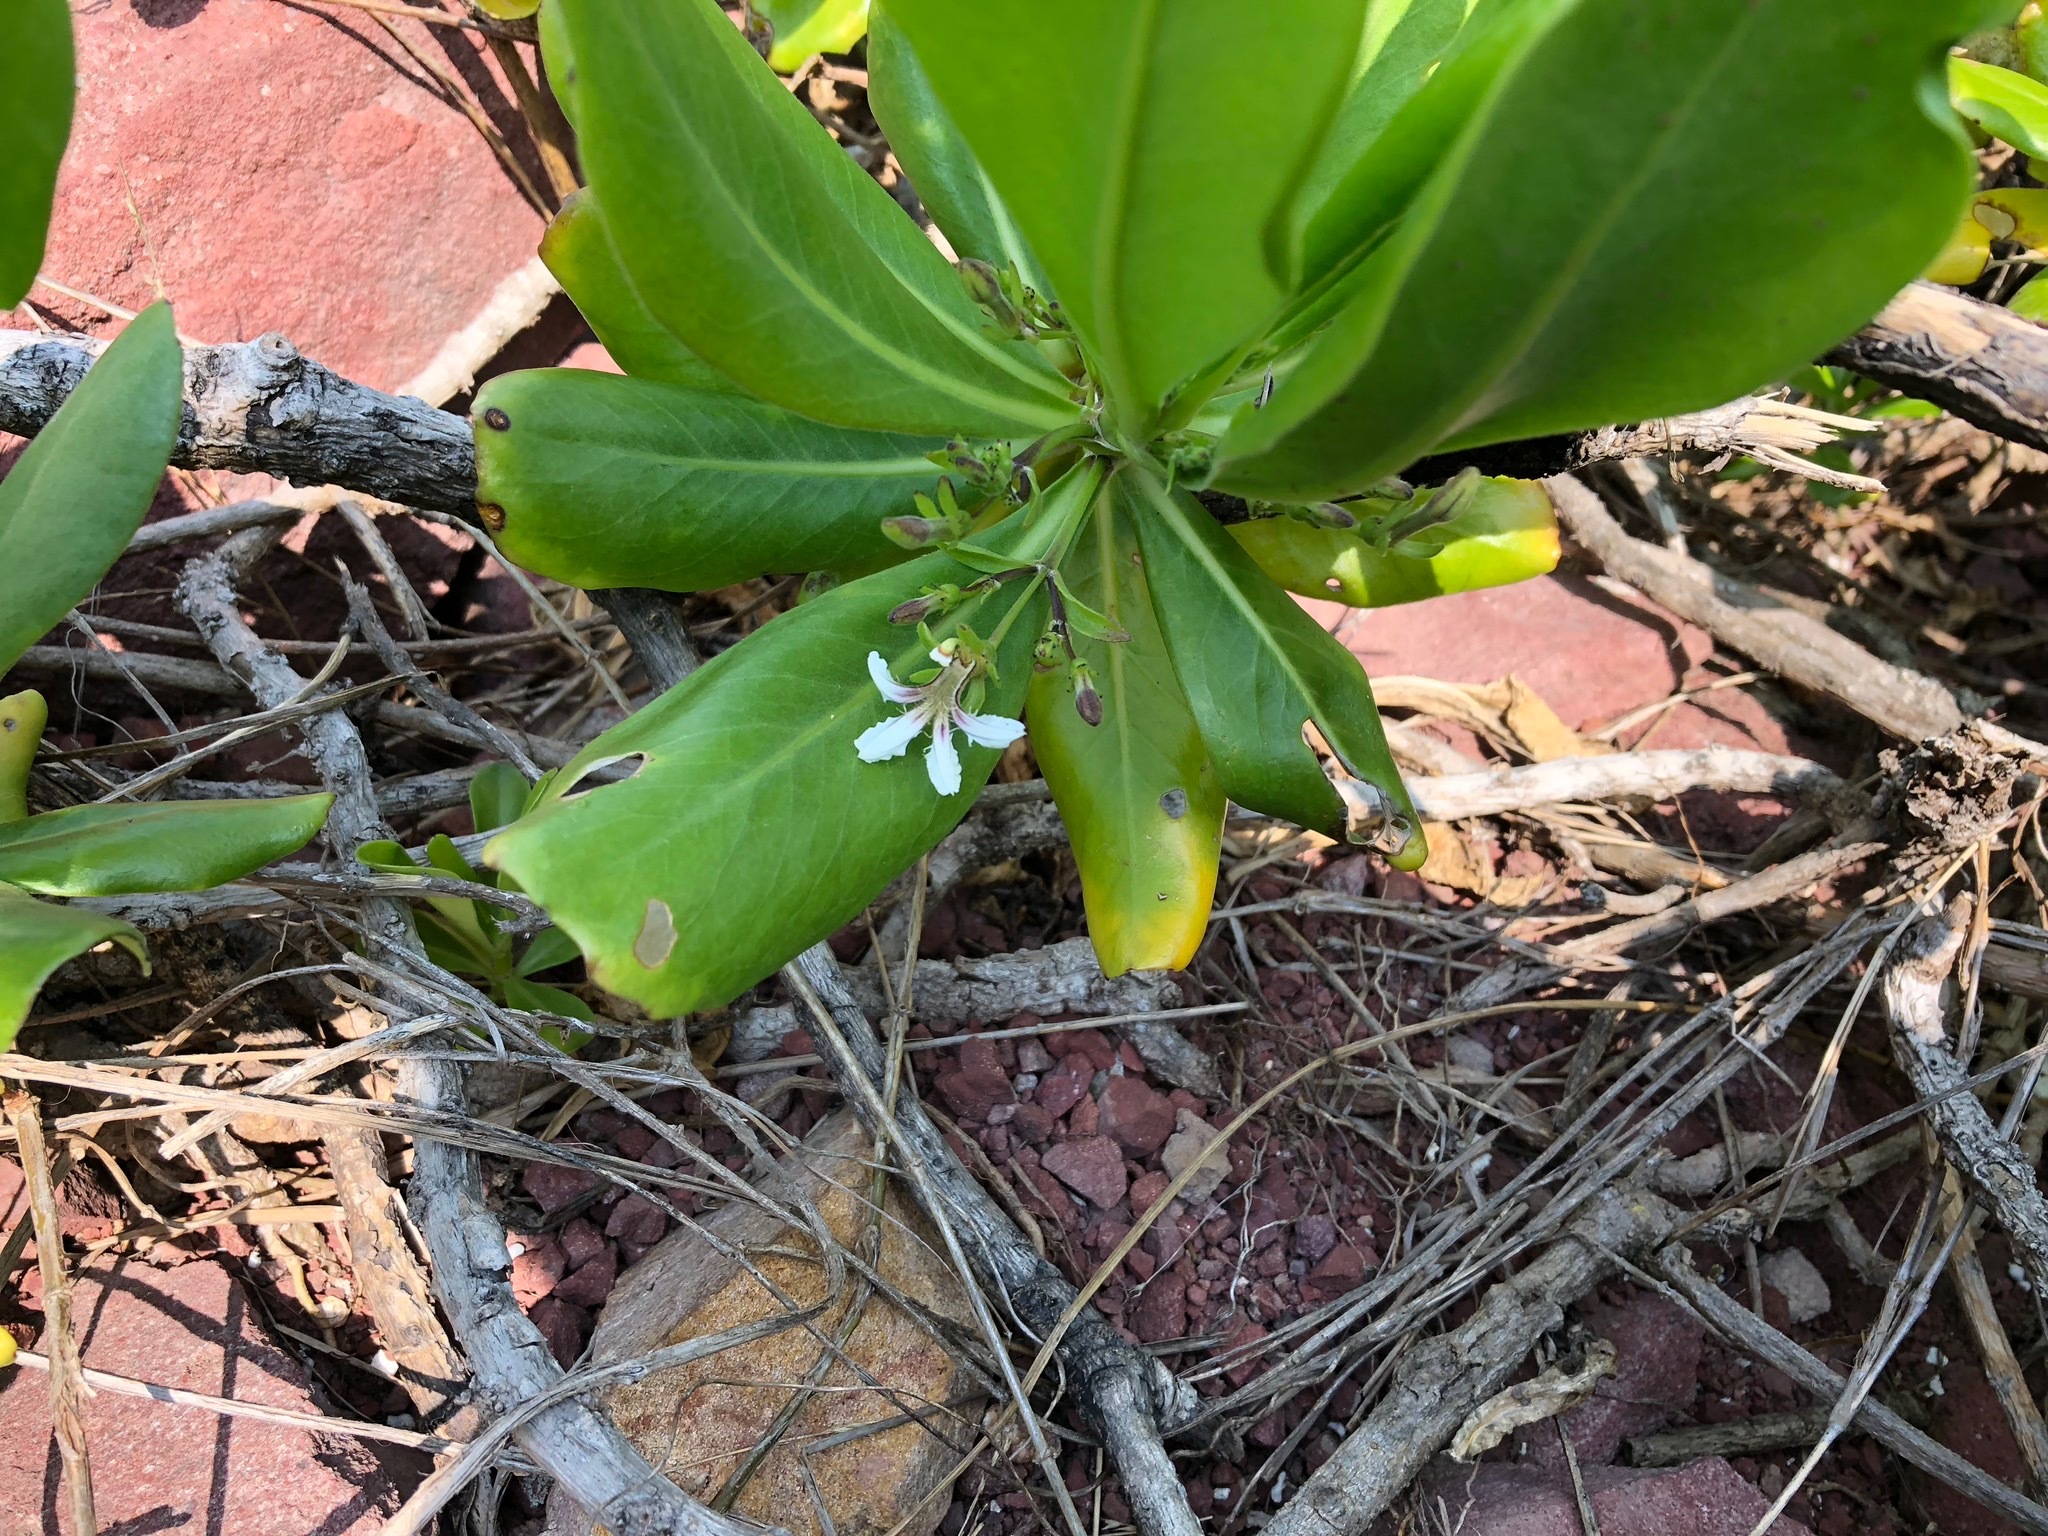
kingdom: Plantae
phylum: Tracheophyta
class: Magnoliopsida
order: Asterales
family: Goodeniaceae
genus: Scaevola
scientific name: Scaevola taccada
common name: Sea lettucetree
